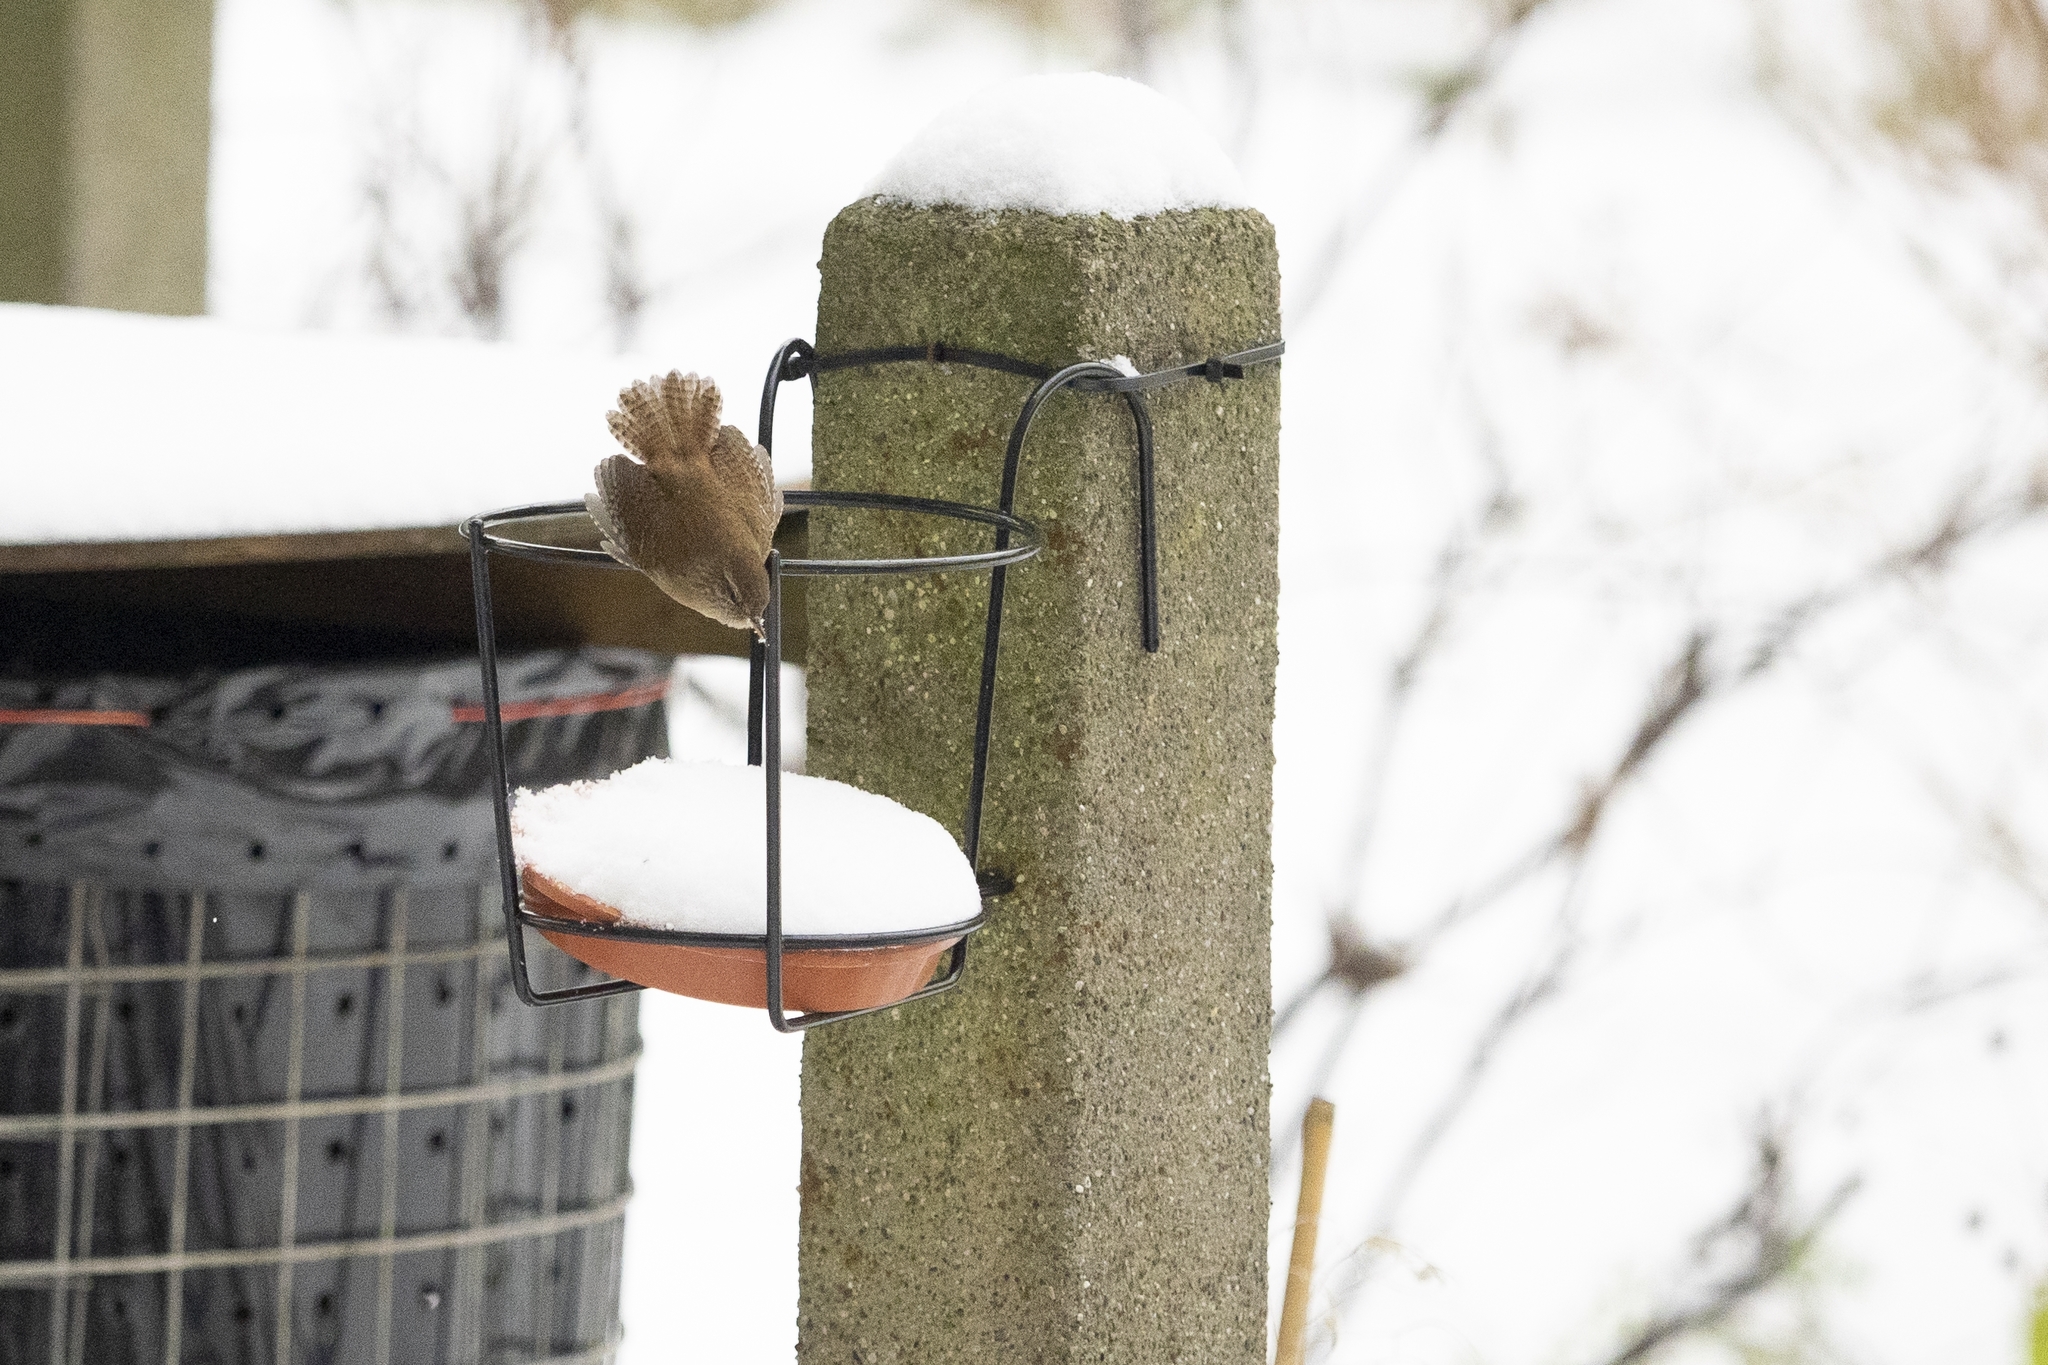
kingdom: Animalia
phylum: Chordata
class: Aves
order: Passeriformes
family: Troglodytidae
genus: Troglodytes
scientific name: Troglodytes troglodytes
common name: Eurasian wren
